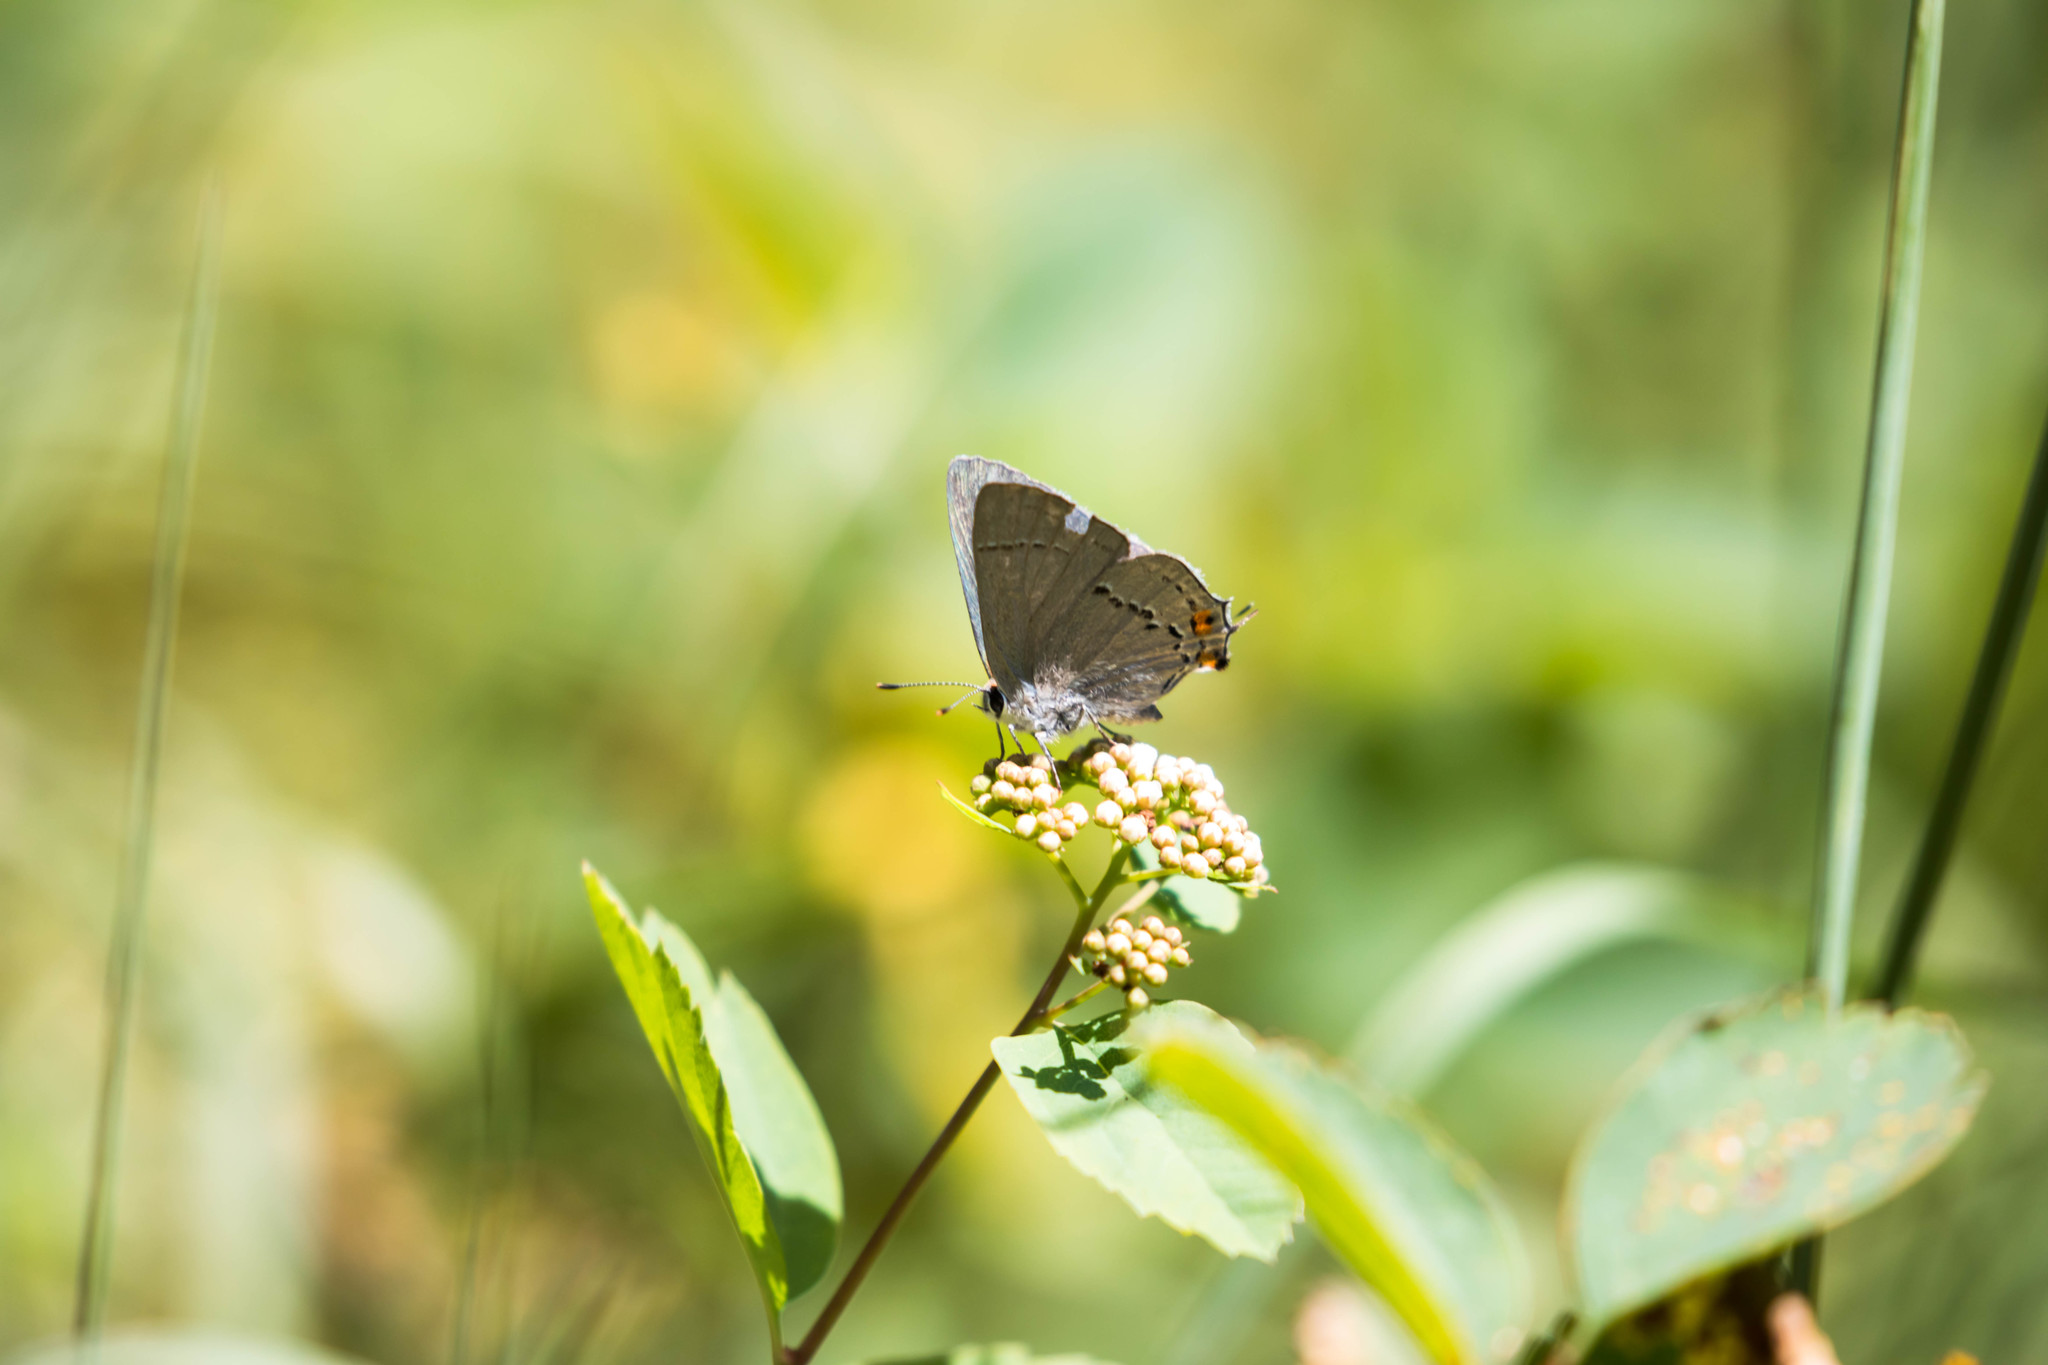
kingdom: Animalia
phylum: Arthropoda
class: Insecta
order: Lepidoptera
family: Lycaenidae
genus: Strymon
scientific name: Strymon melinus
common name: Gray hairstreak
